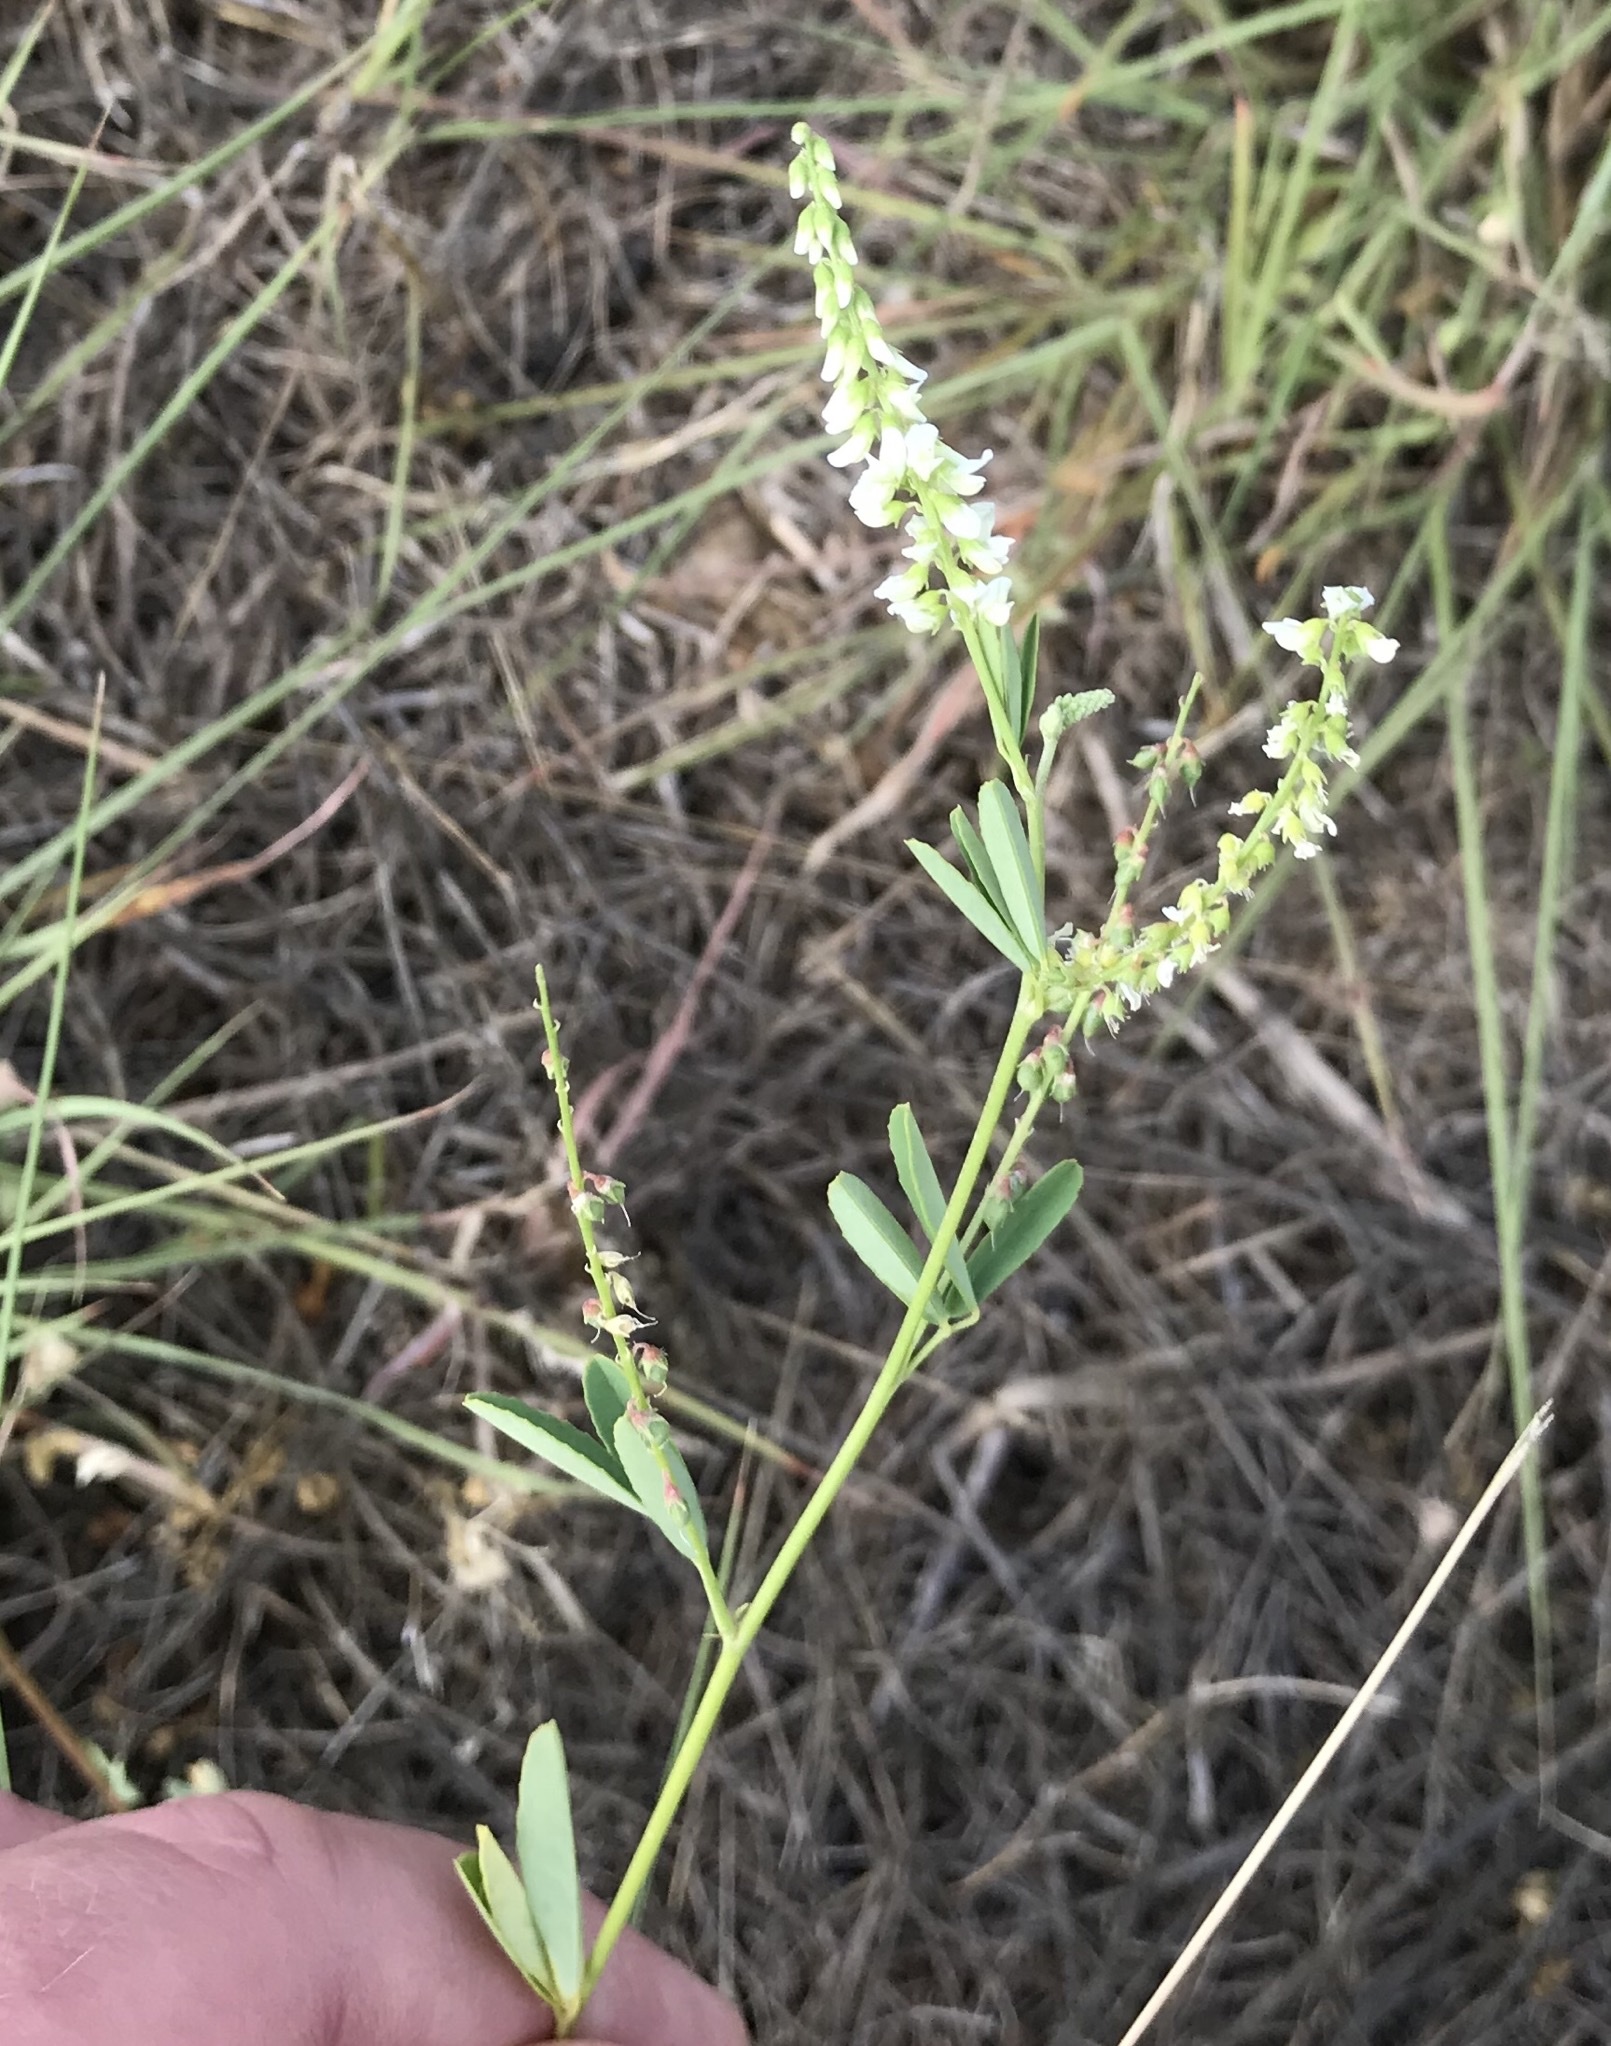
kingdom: Plantae
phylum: Tracheophyta
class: Magnoliopsida
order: Fabales
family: Fabaceae
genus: Melilotus
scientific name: Melilotus albus
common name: White melilot
